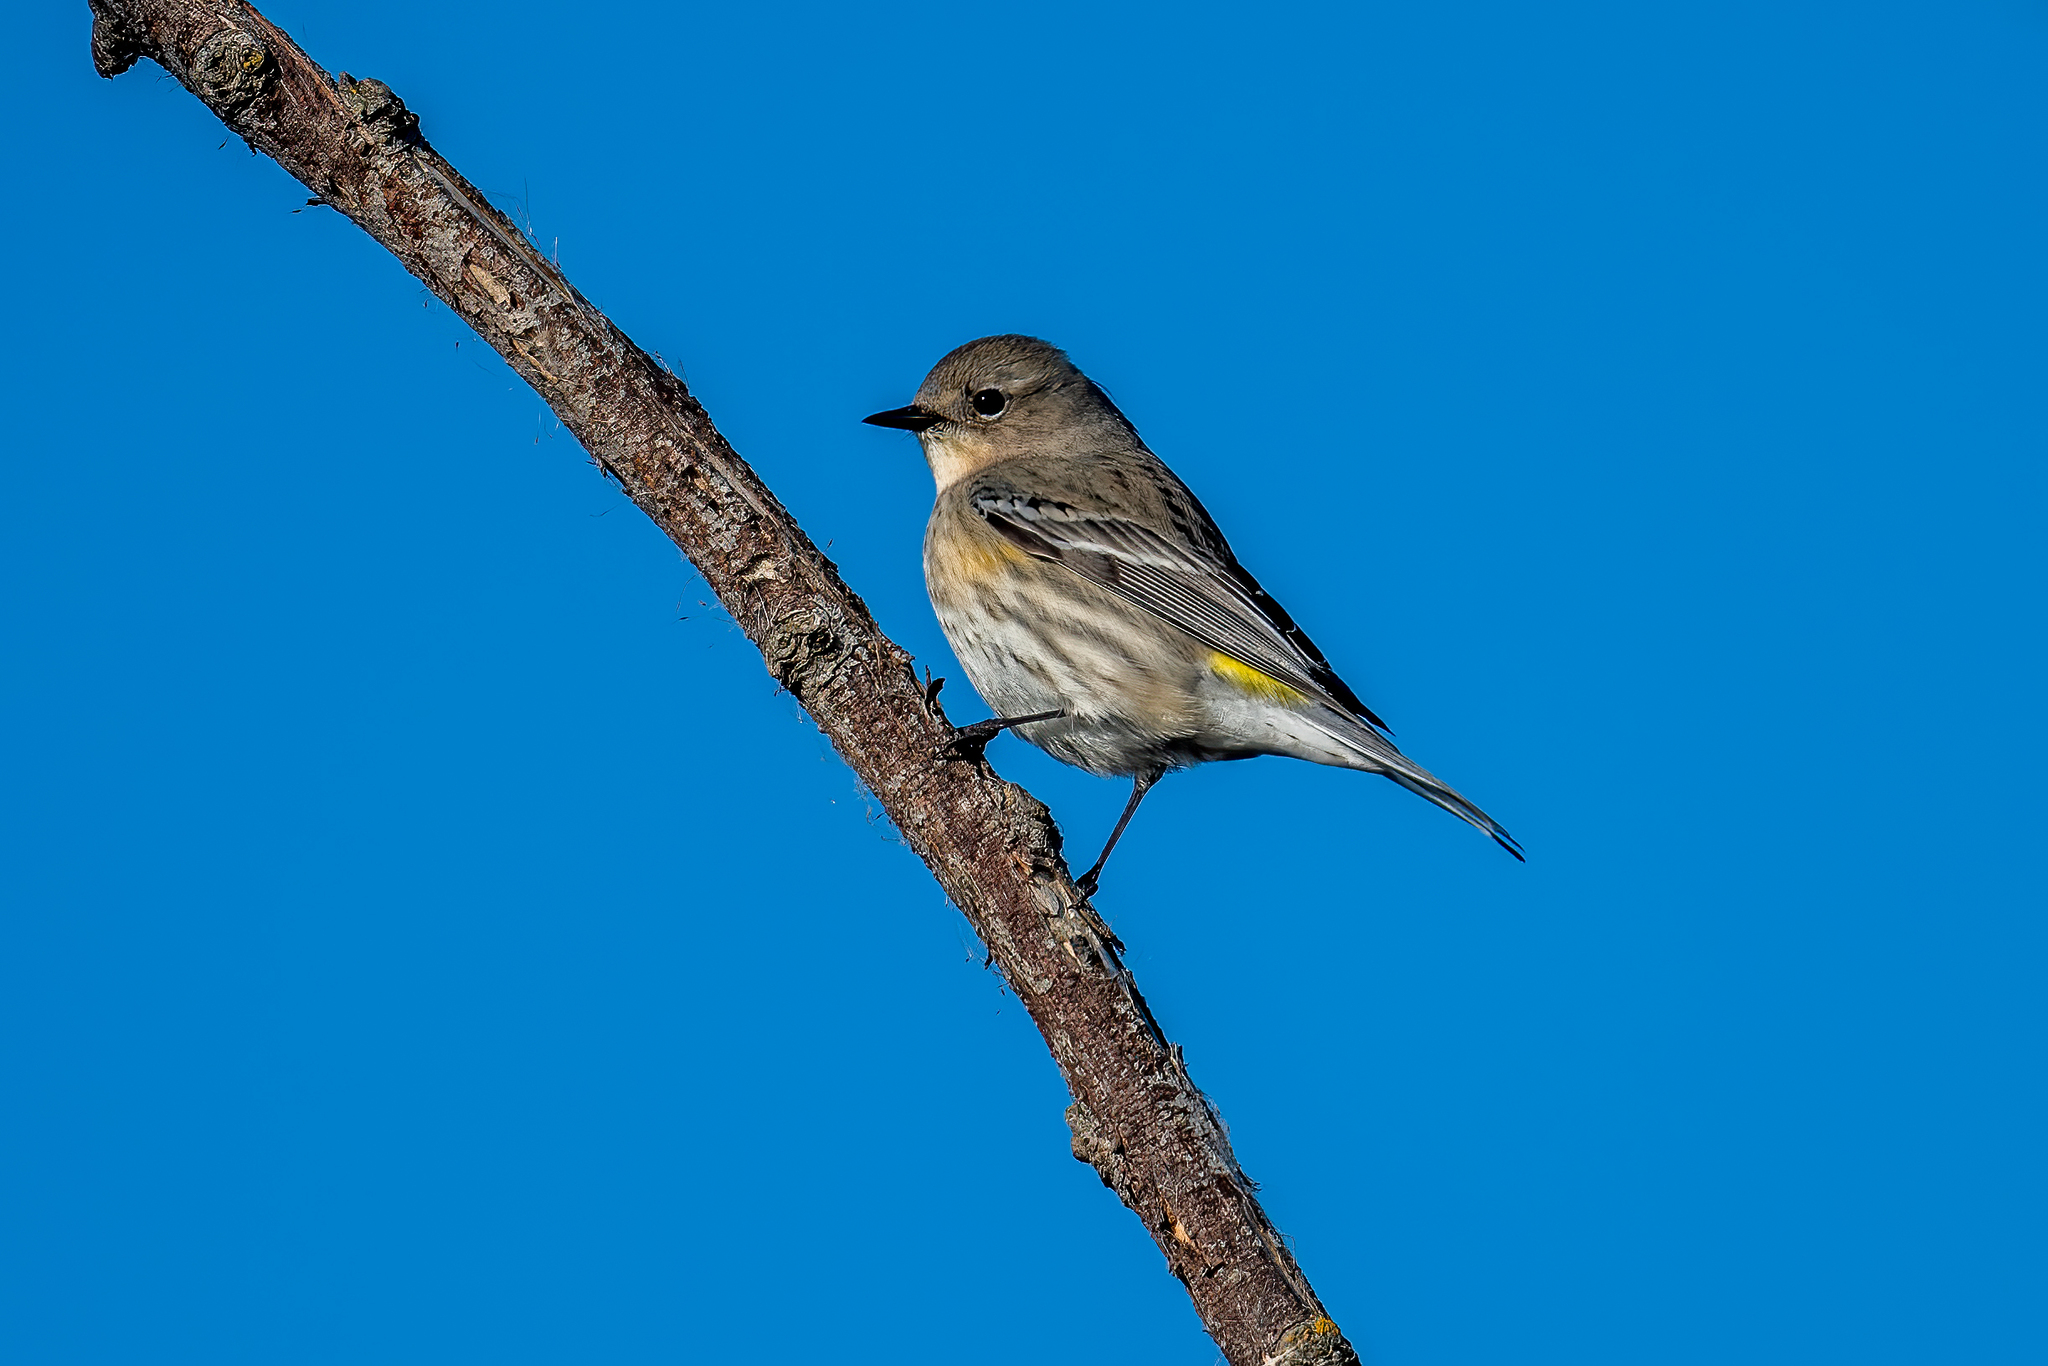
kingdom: Animalia
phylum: Chordata
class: Aves
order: Passeriformes
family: Parulidae
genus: Setophaga
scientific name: Setophaga coronata
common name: Myrtle warbler
